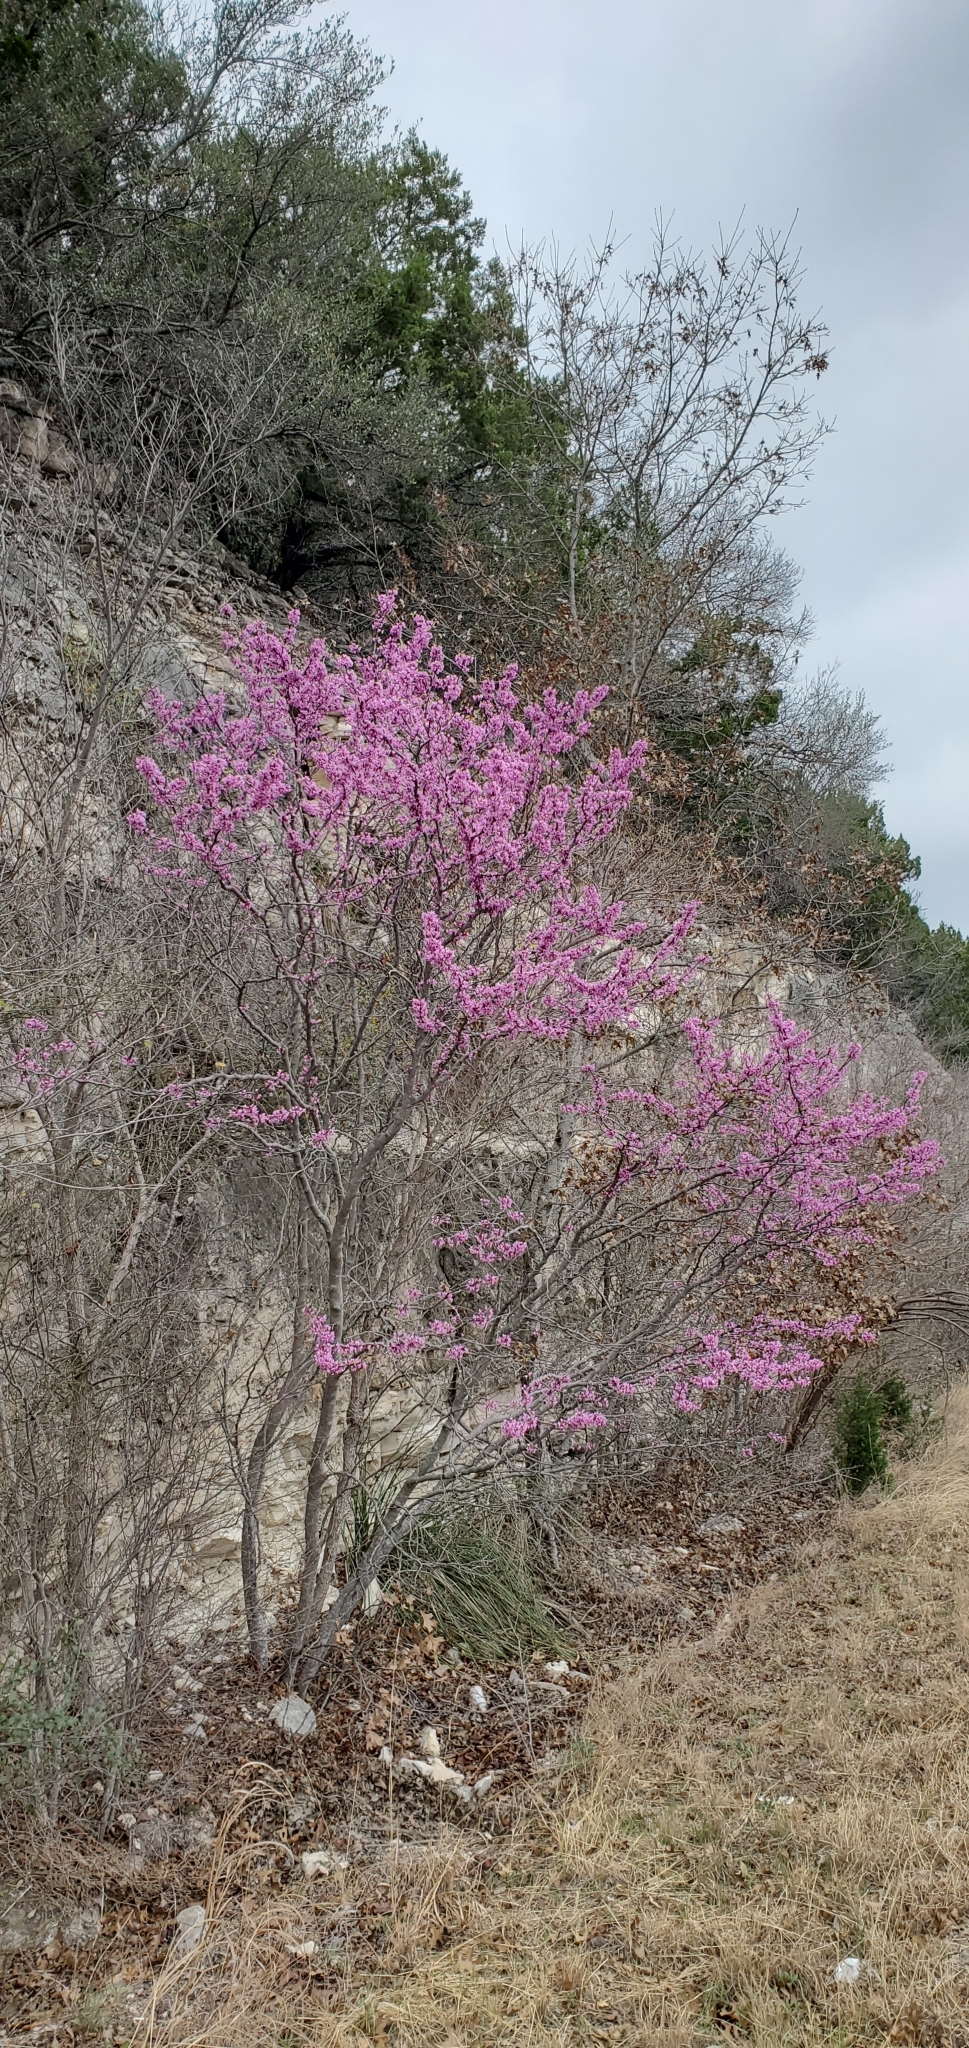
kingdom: Plantae
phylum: Tracheophyta
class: Magnoliopsida
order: Fabales
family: Fabaceae
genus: Cercis
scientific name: Cercis canadensis
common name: Eastern redbud
